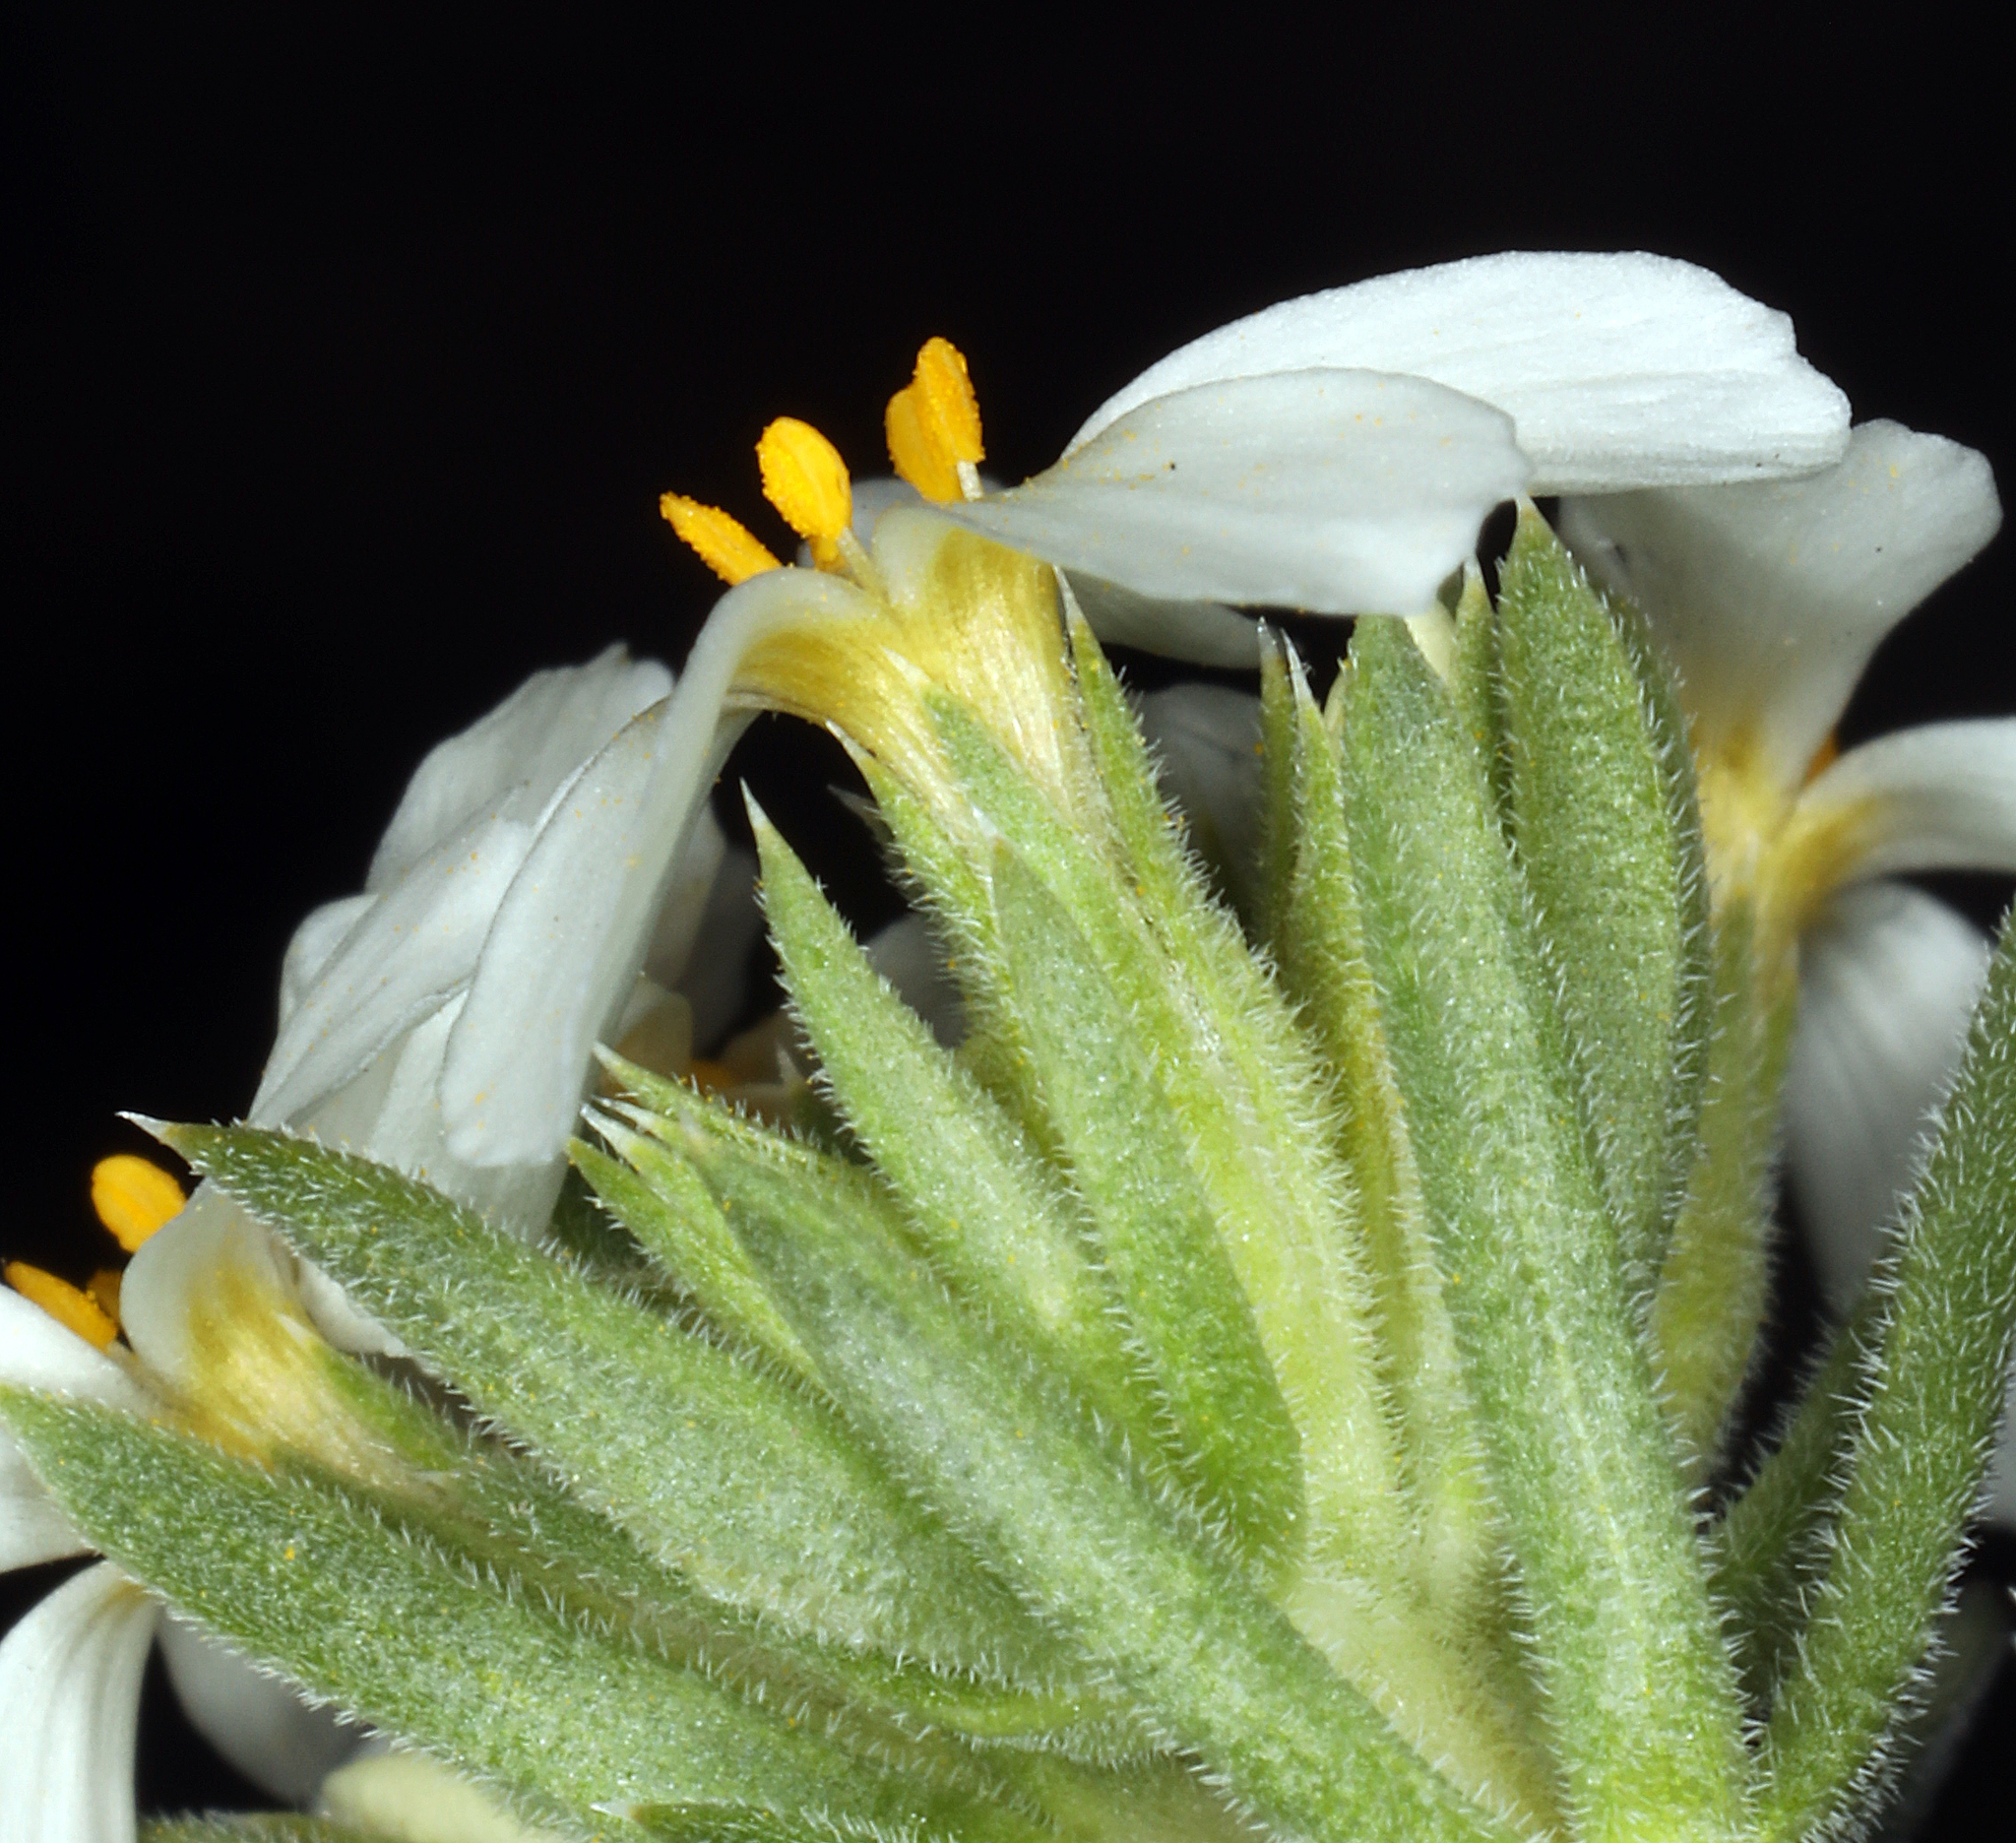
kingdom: Plantae
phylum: Tracheophyta
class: Magnoliopsida
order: Ericales
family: Polemoniaceae
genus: Leptosiphon
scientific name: Leptosiphon nuttallii
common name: Nuttall's linanthus
